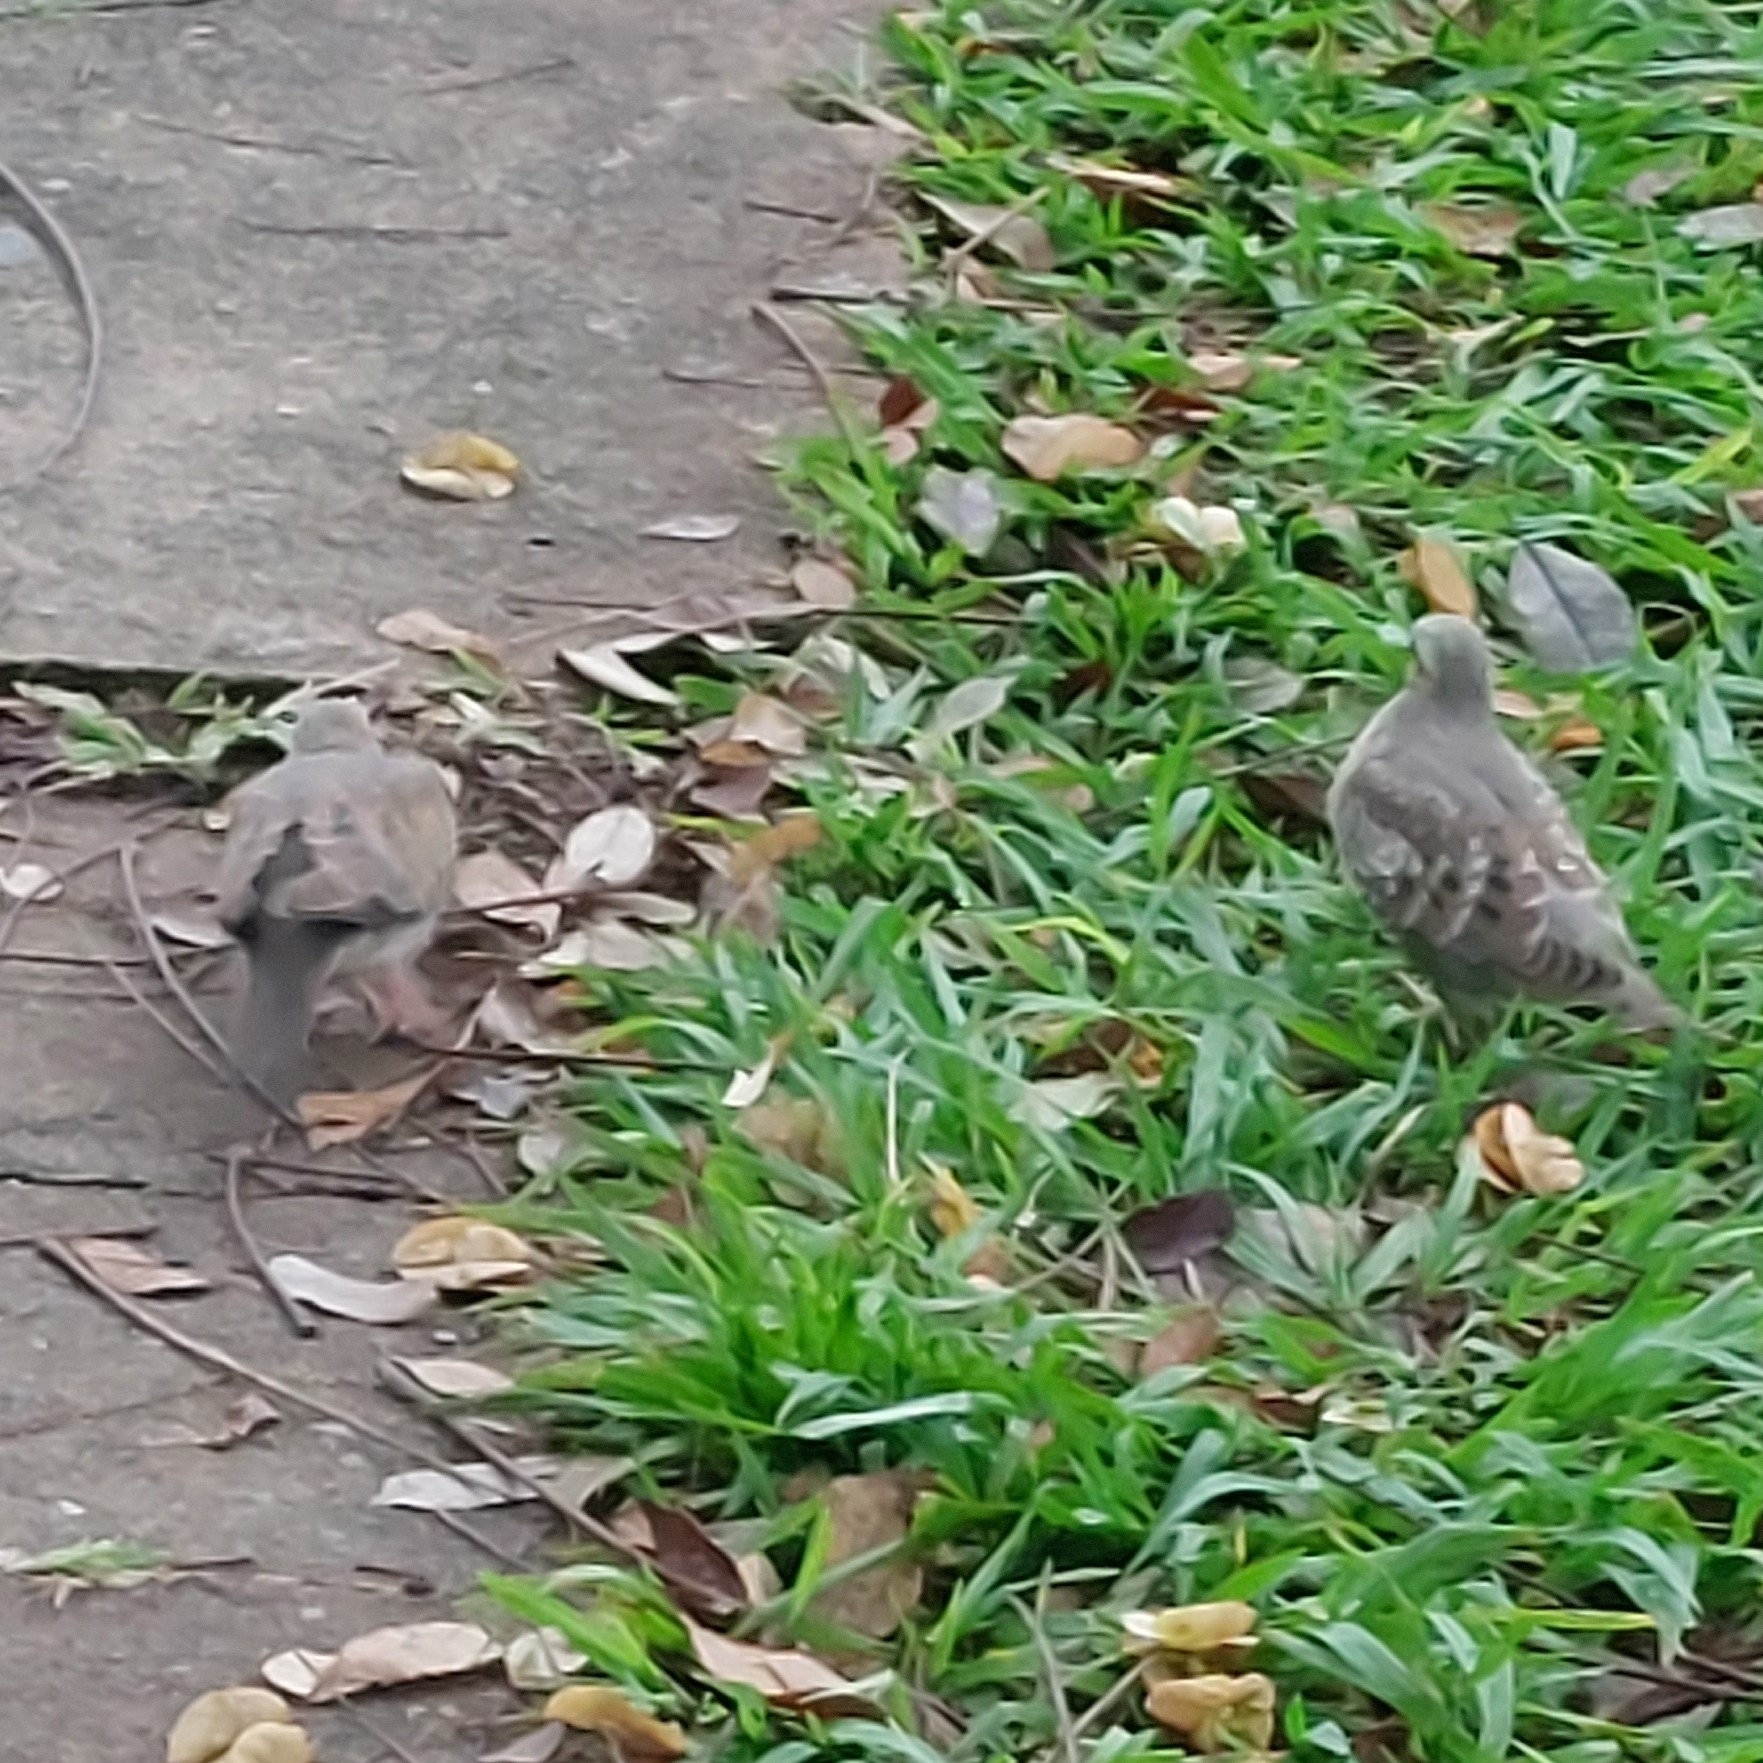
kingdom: Animalia
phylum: Chordata
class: Aves
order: Columbiformes
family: Columbidae
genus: Zenaida
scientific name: Zenaida auriculata
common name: Eared dove
